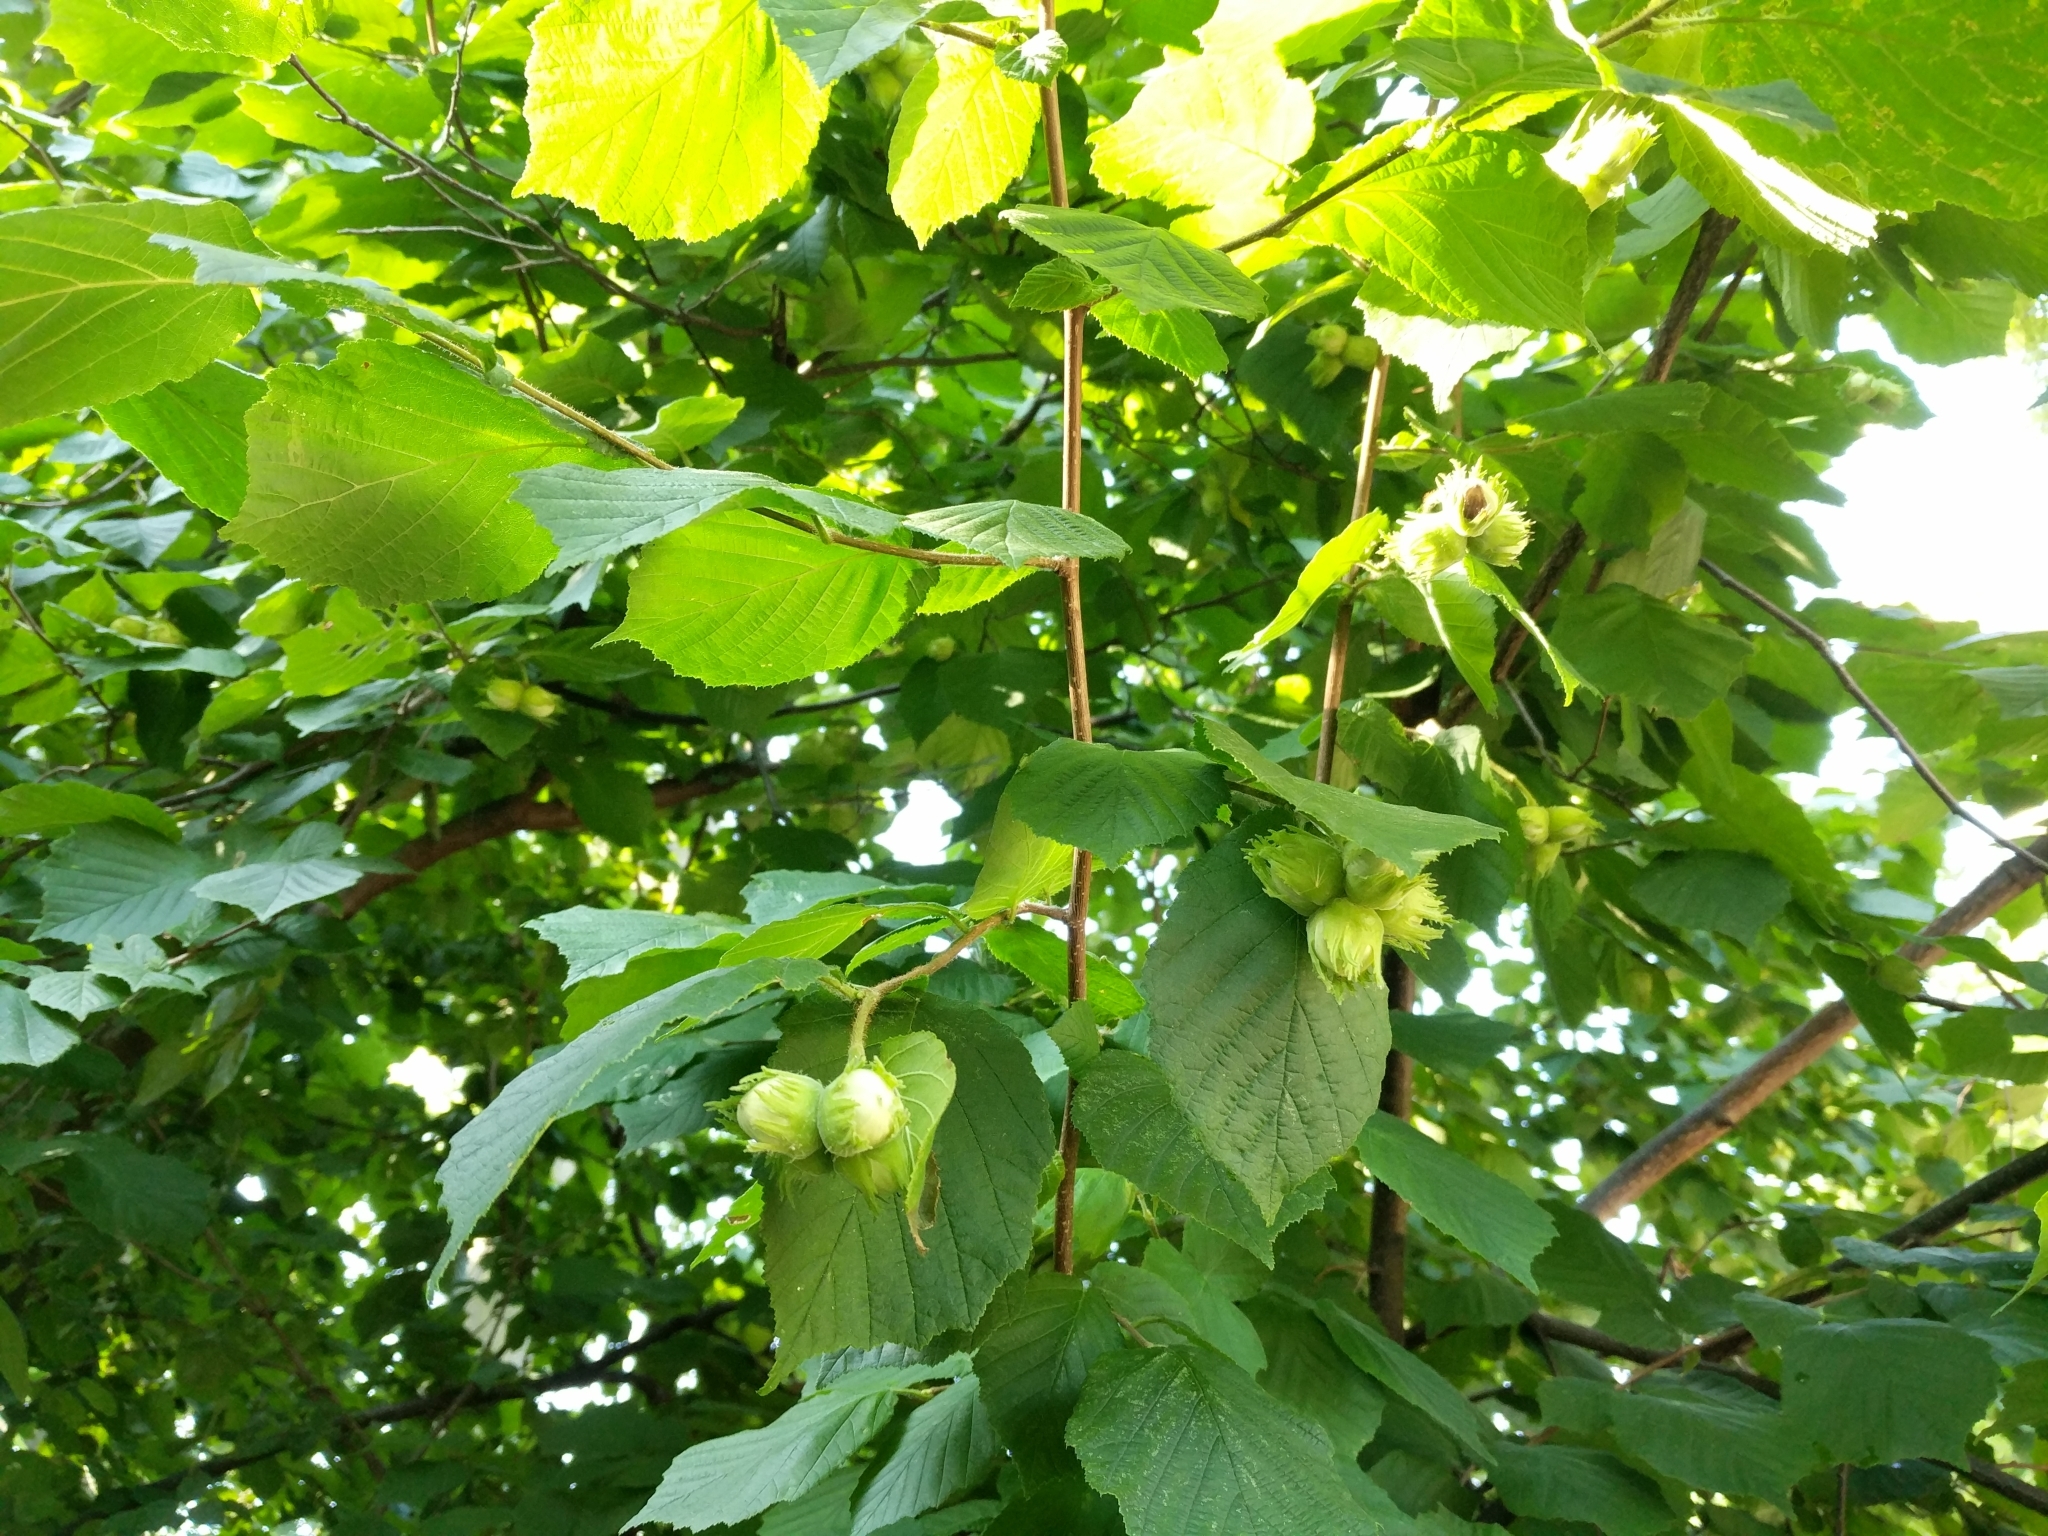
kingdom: Plantae
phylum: Tracheophyta
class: Magnoliopsida
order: Fagales
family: Betulaceae
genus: Corylus
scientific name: Corylus avellana
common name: European hazel
